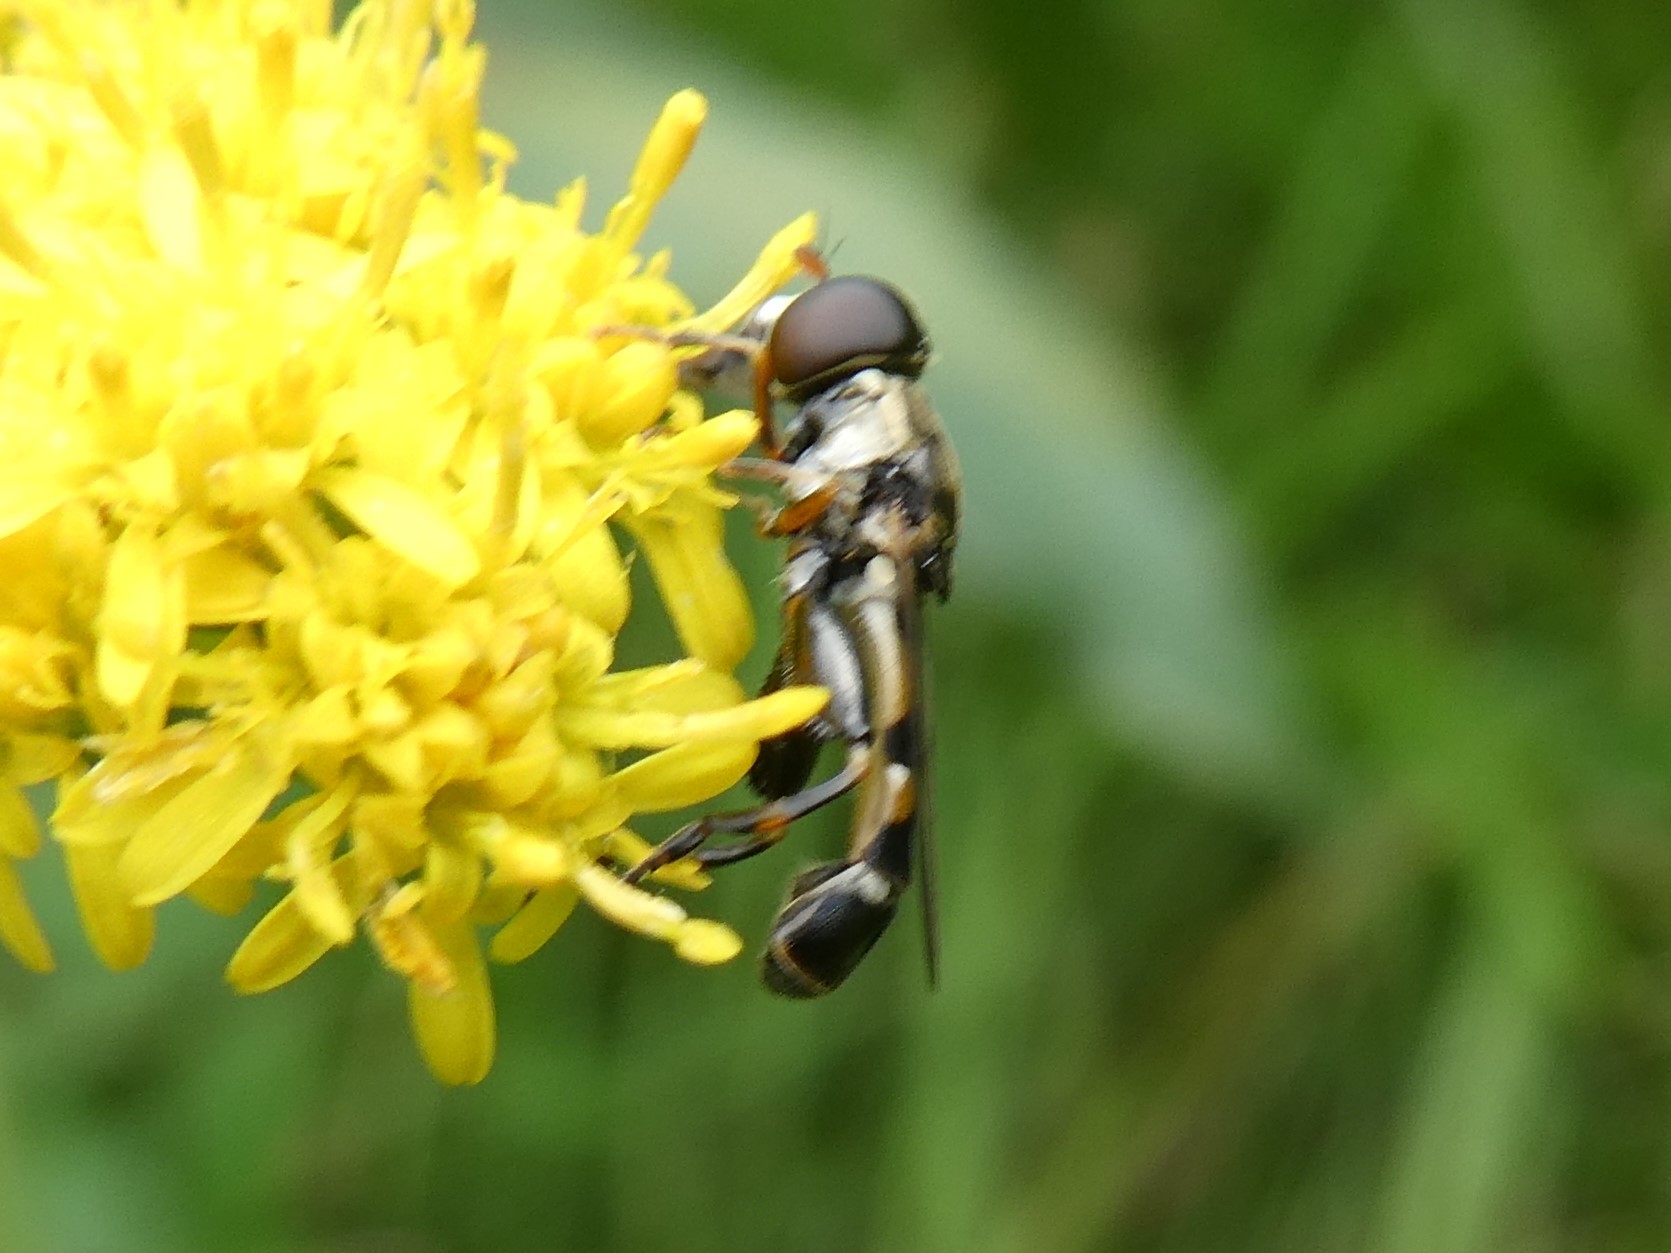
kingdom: Animalia
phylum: Arthropoda
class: Insecta
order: Diptera
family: Syrphidae
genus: Syritta
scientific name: Syritta pipiens
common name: Hover fly
